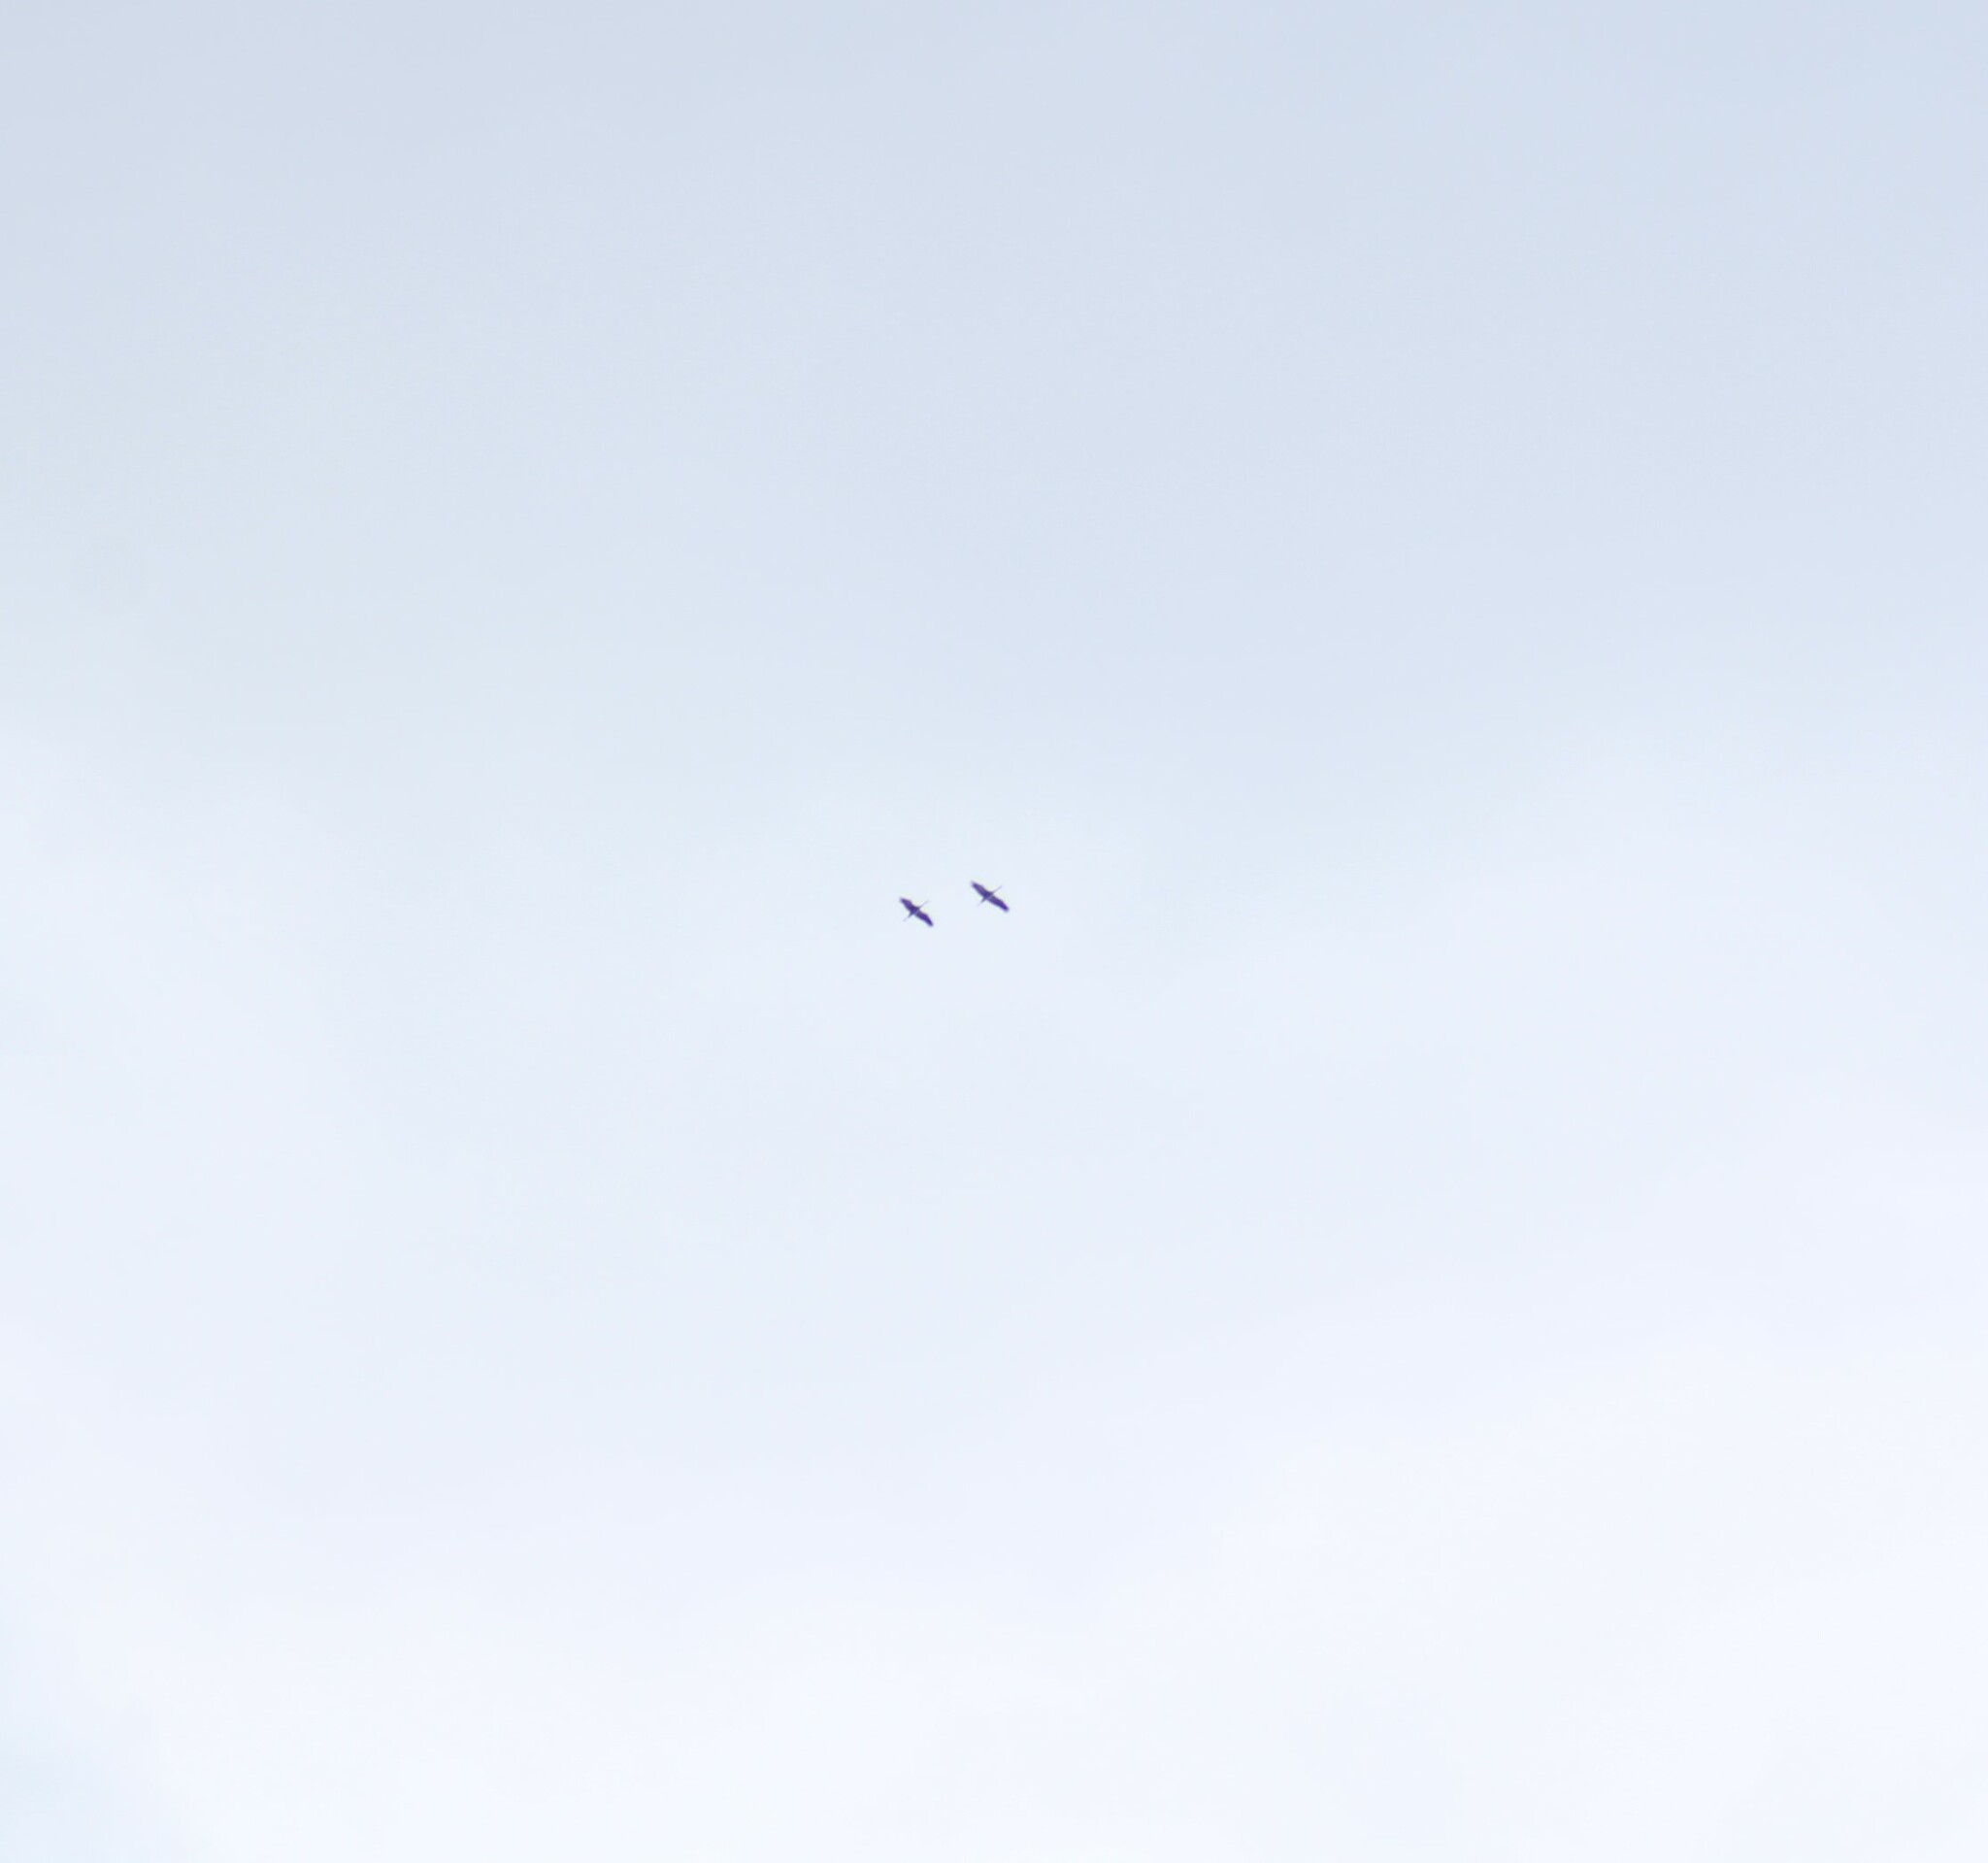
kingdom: Animalia
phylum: Chordata
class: Aves
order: Suliformes
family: Phalacrocoracidae
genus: Phalacrocorax
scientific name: Phalacrocorax carbo
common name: Great cormorant
